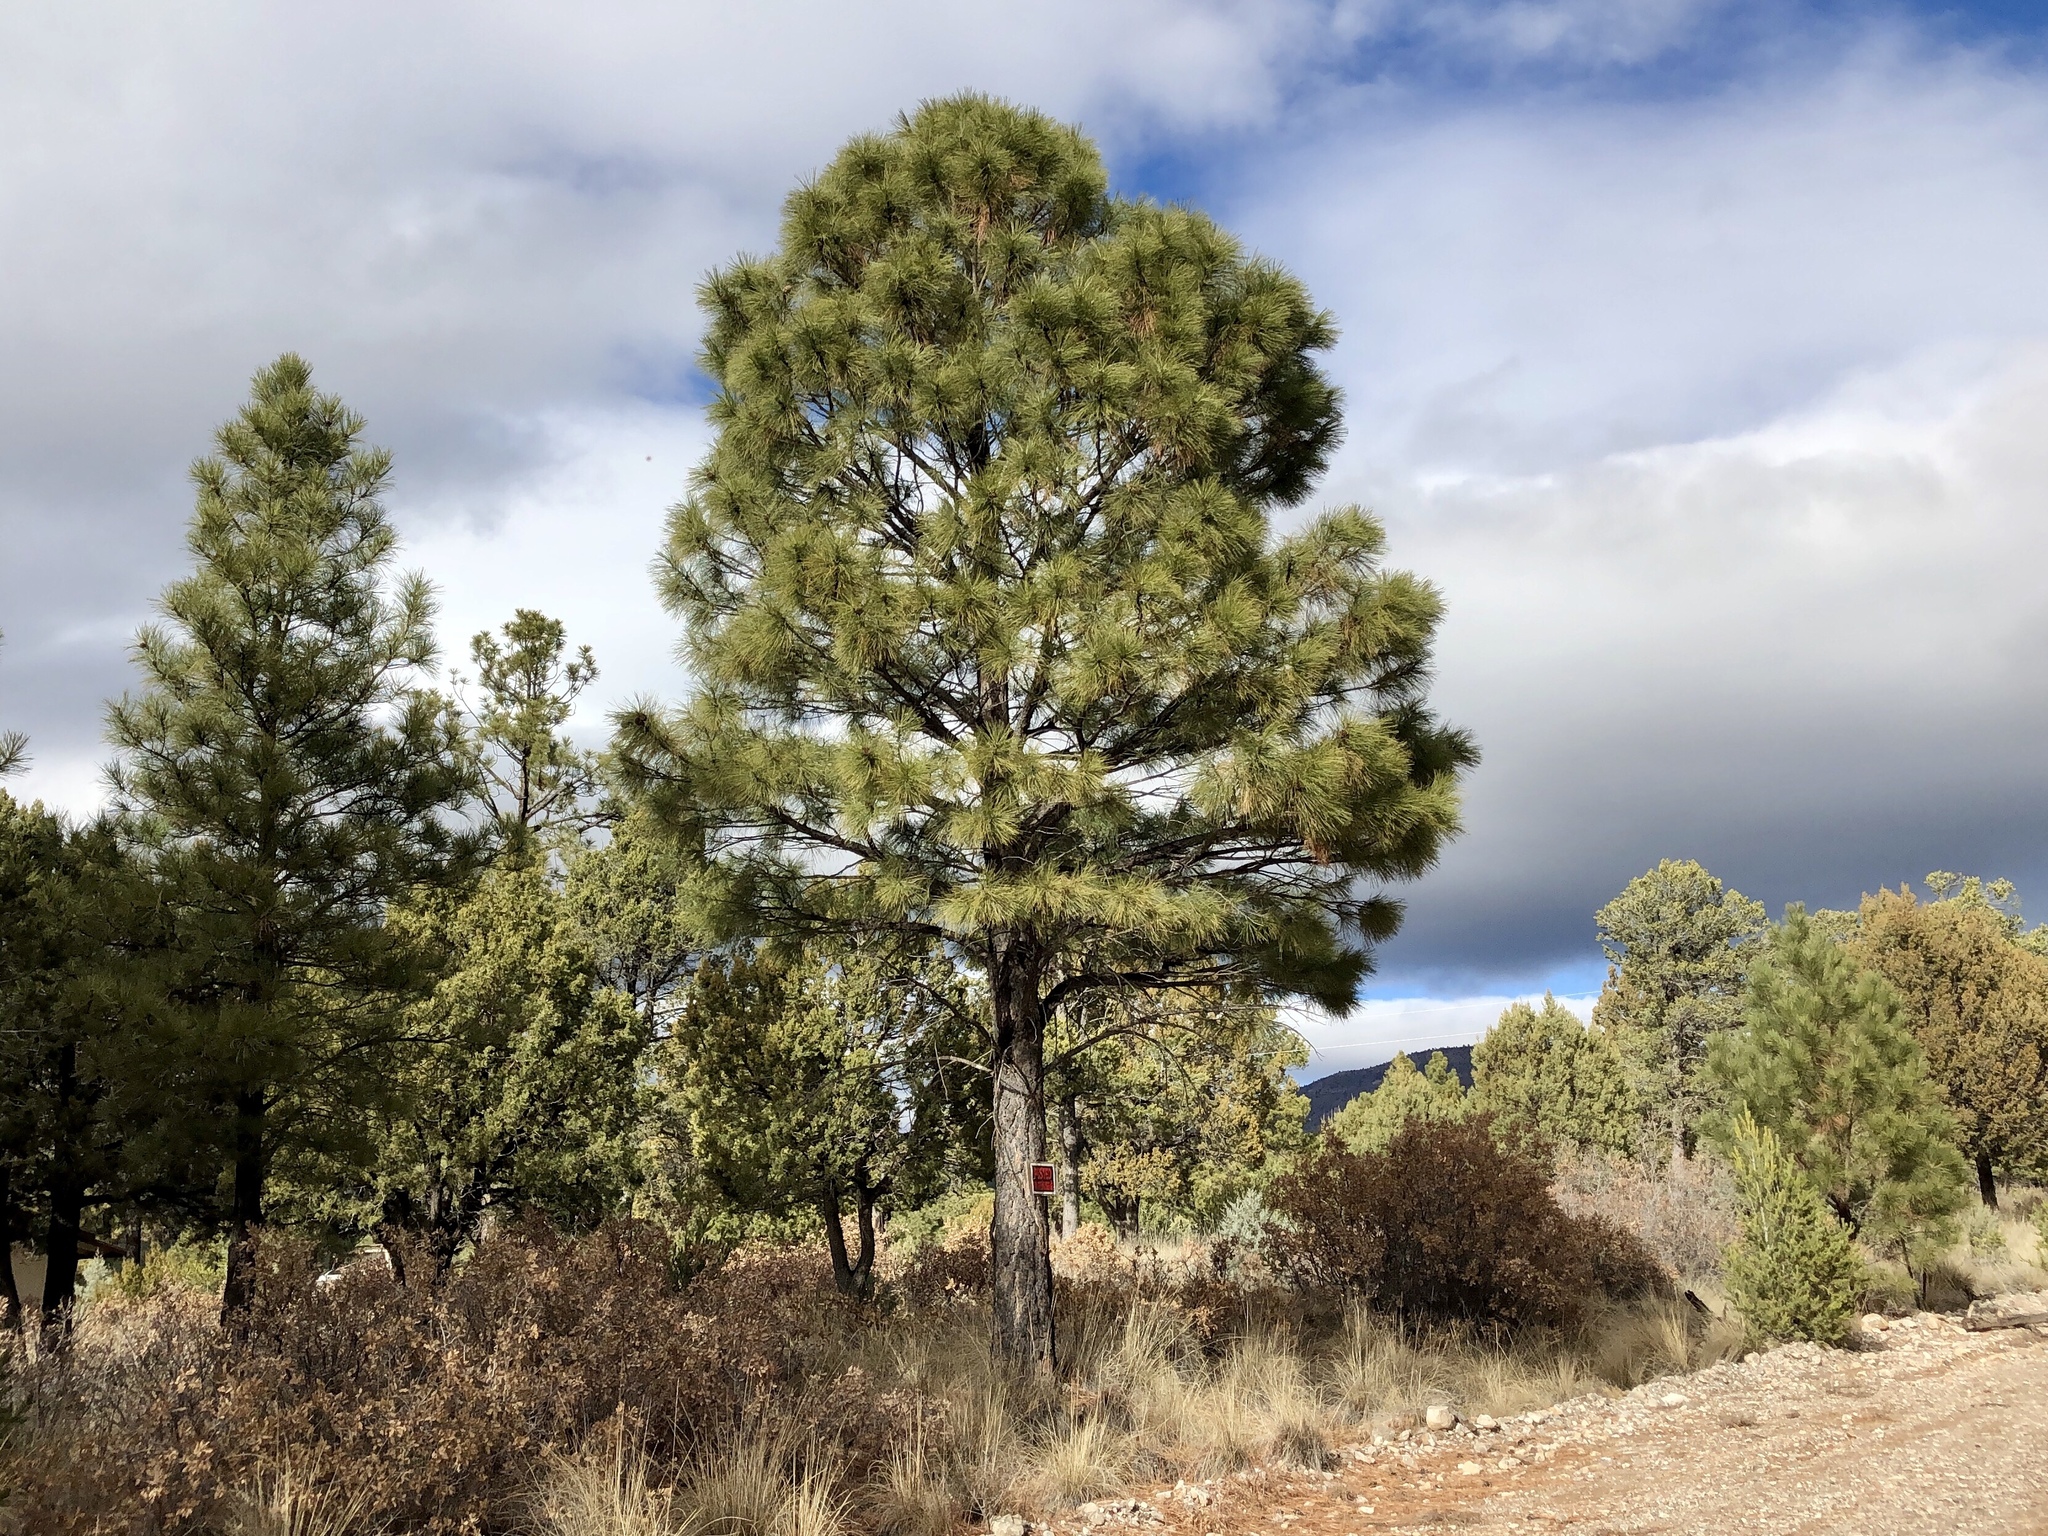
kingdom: Plantae
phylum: Tracheophyta
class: Pinopsida
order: Pinales
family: Pinaceae
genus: Pinus
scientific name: Pinus ponderosa
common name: Western yellow-pine
